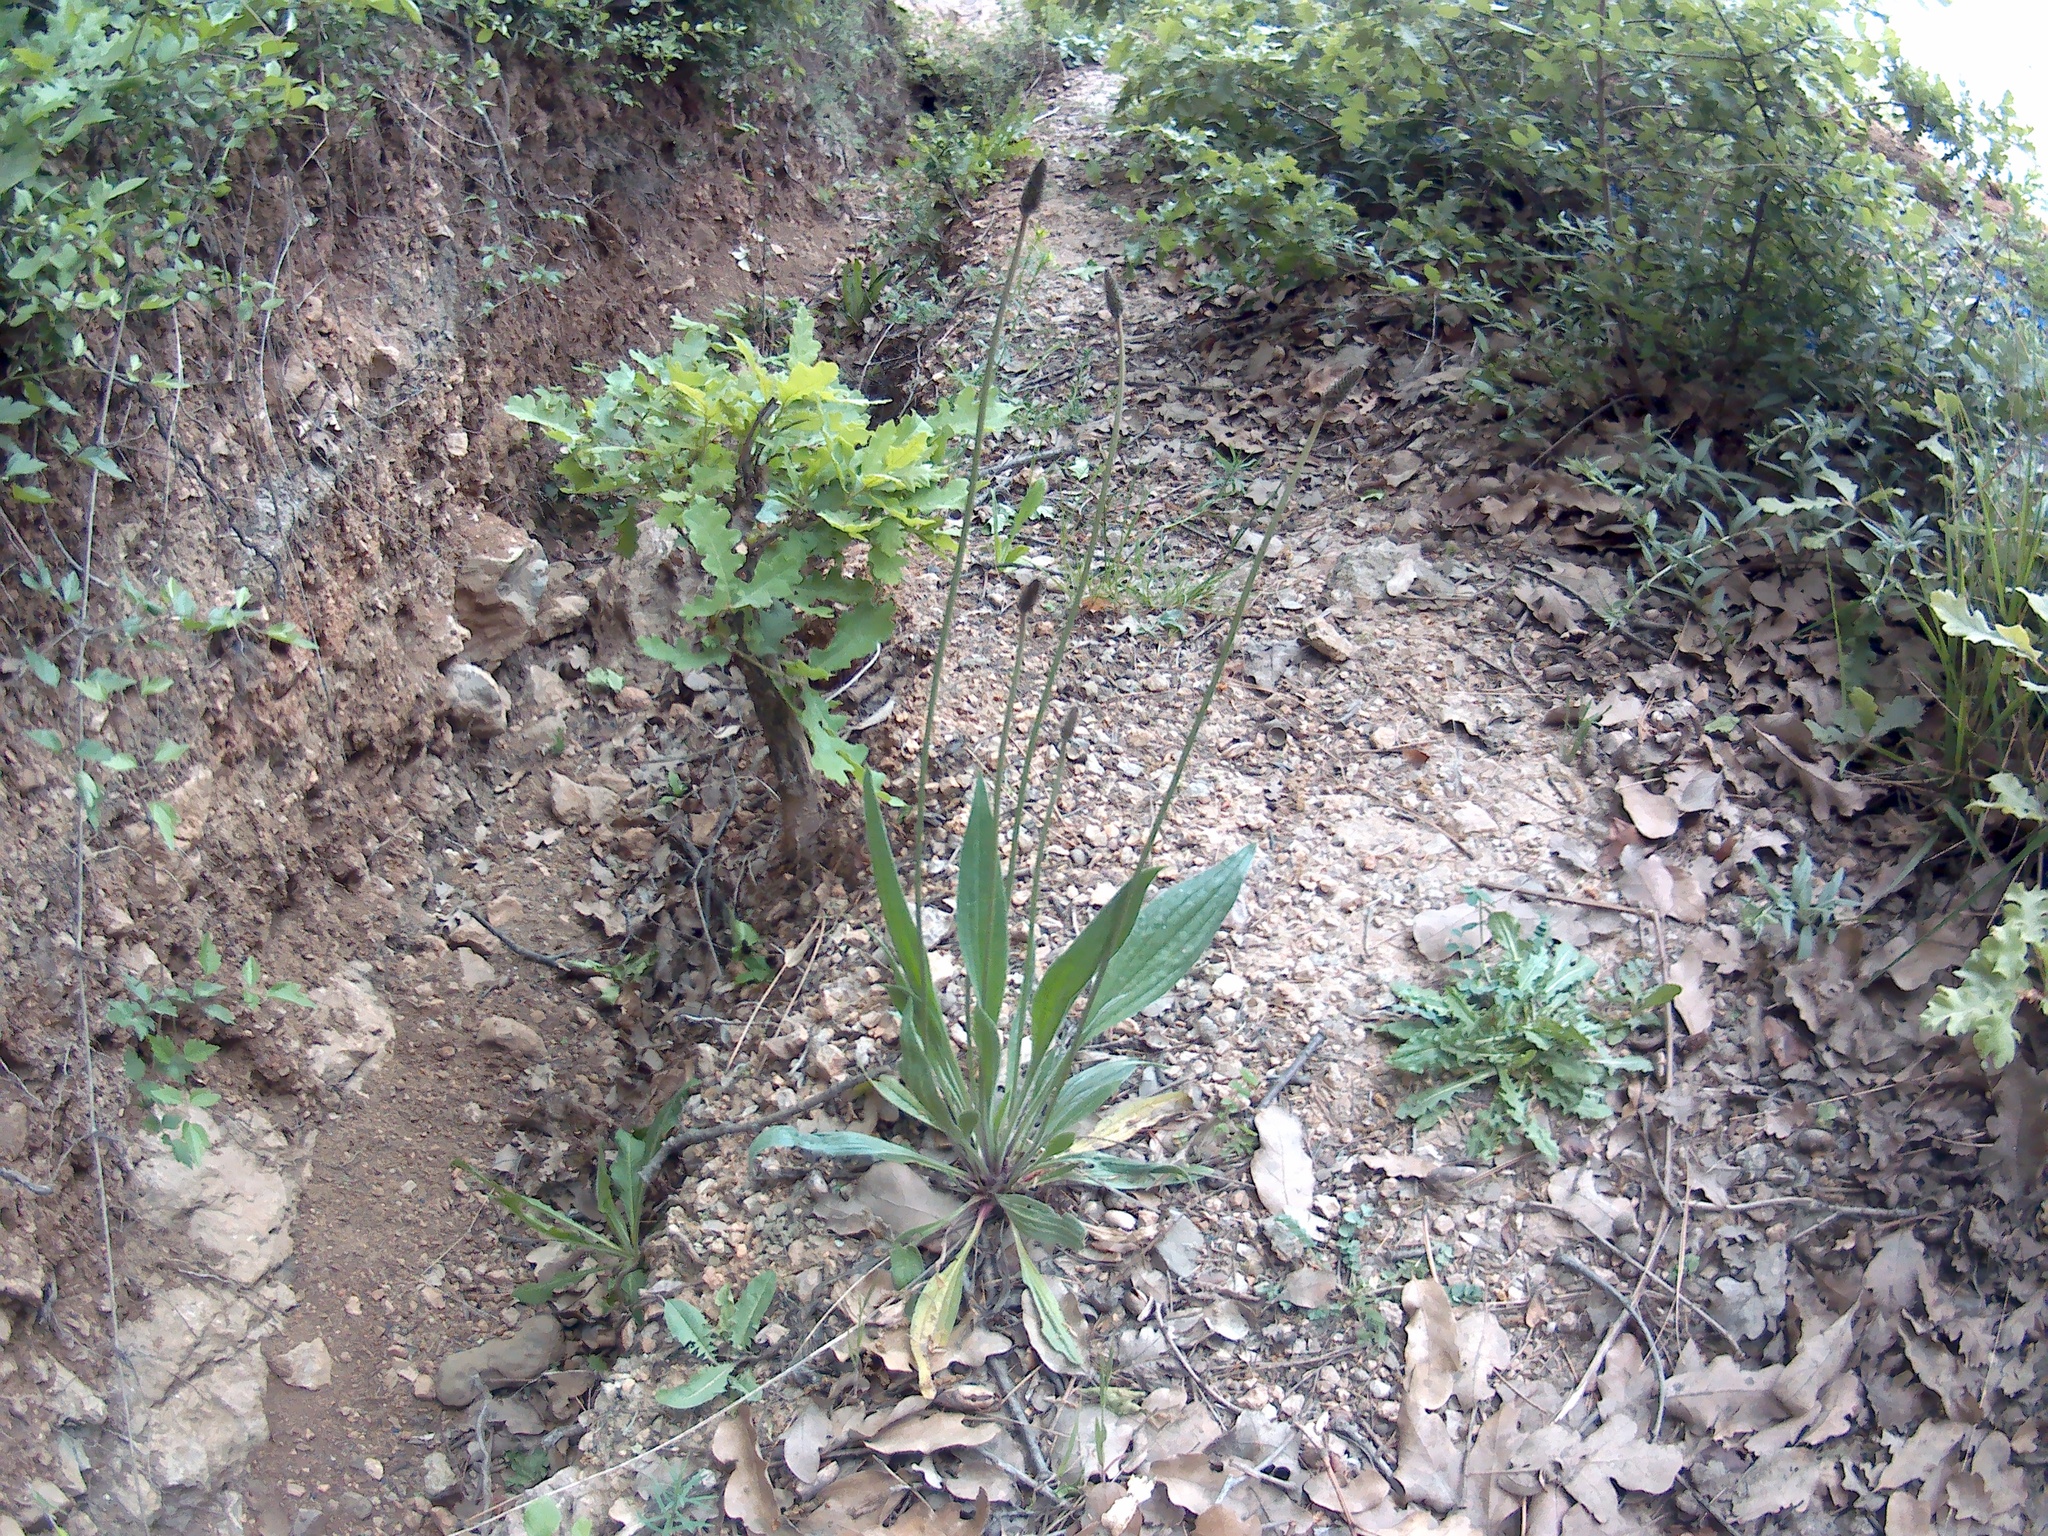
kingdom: Plantae
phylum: Tracheophyta
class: Magnoliopsida
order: Lamiales
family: Plantaginaceae
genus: Plantago
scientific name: Plantago lanceolata
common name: Ribwort plantain
